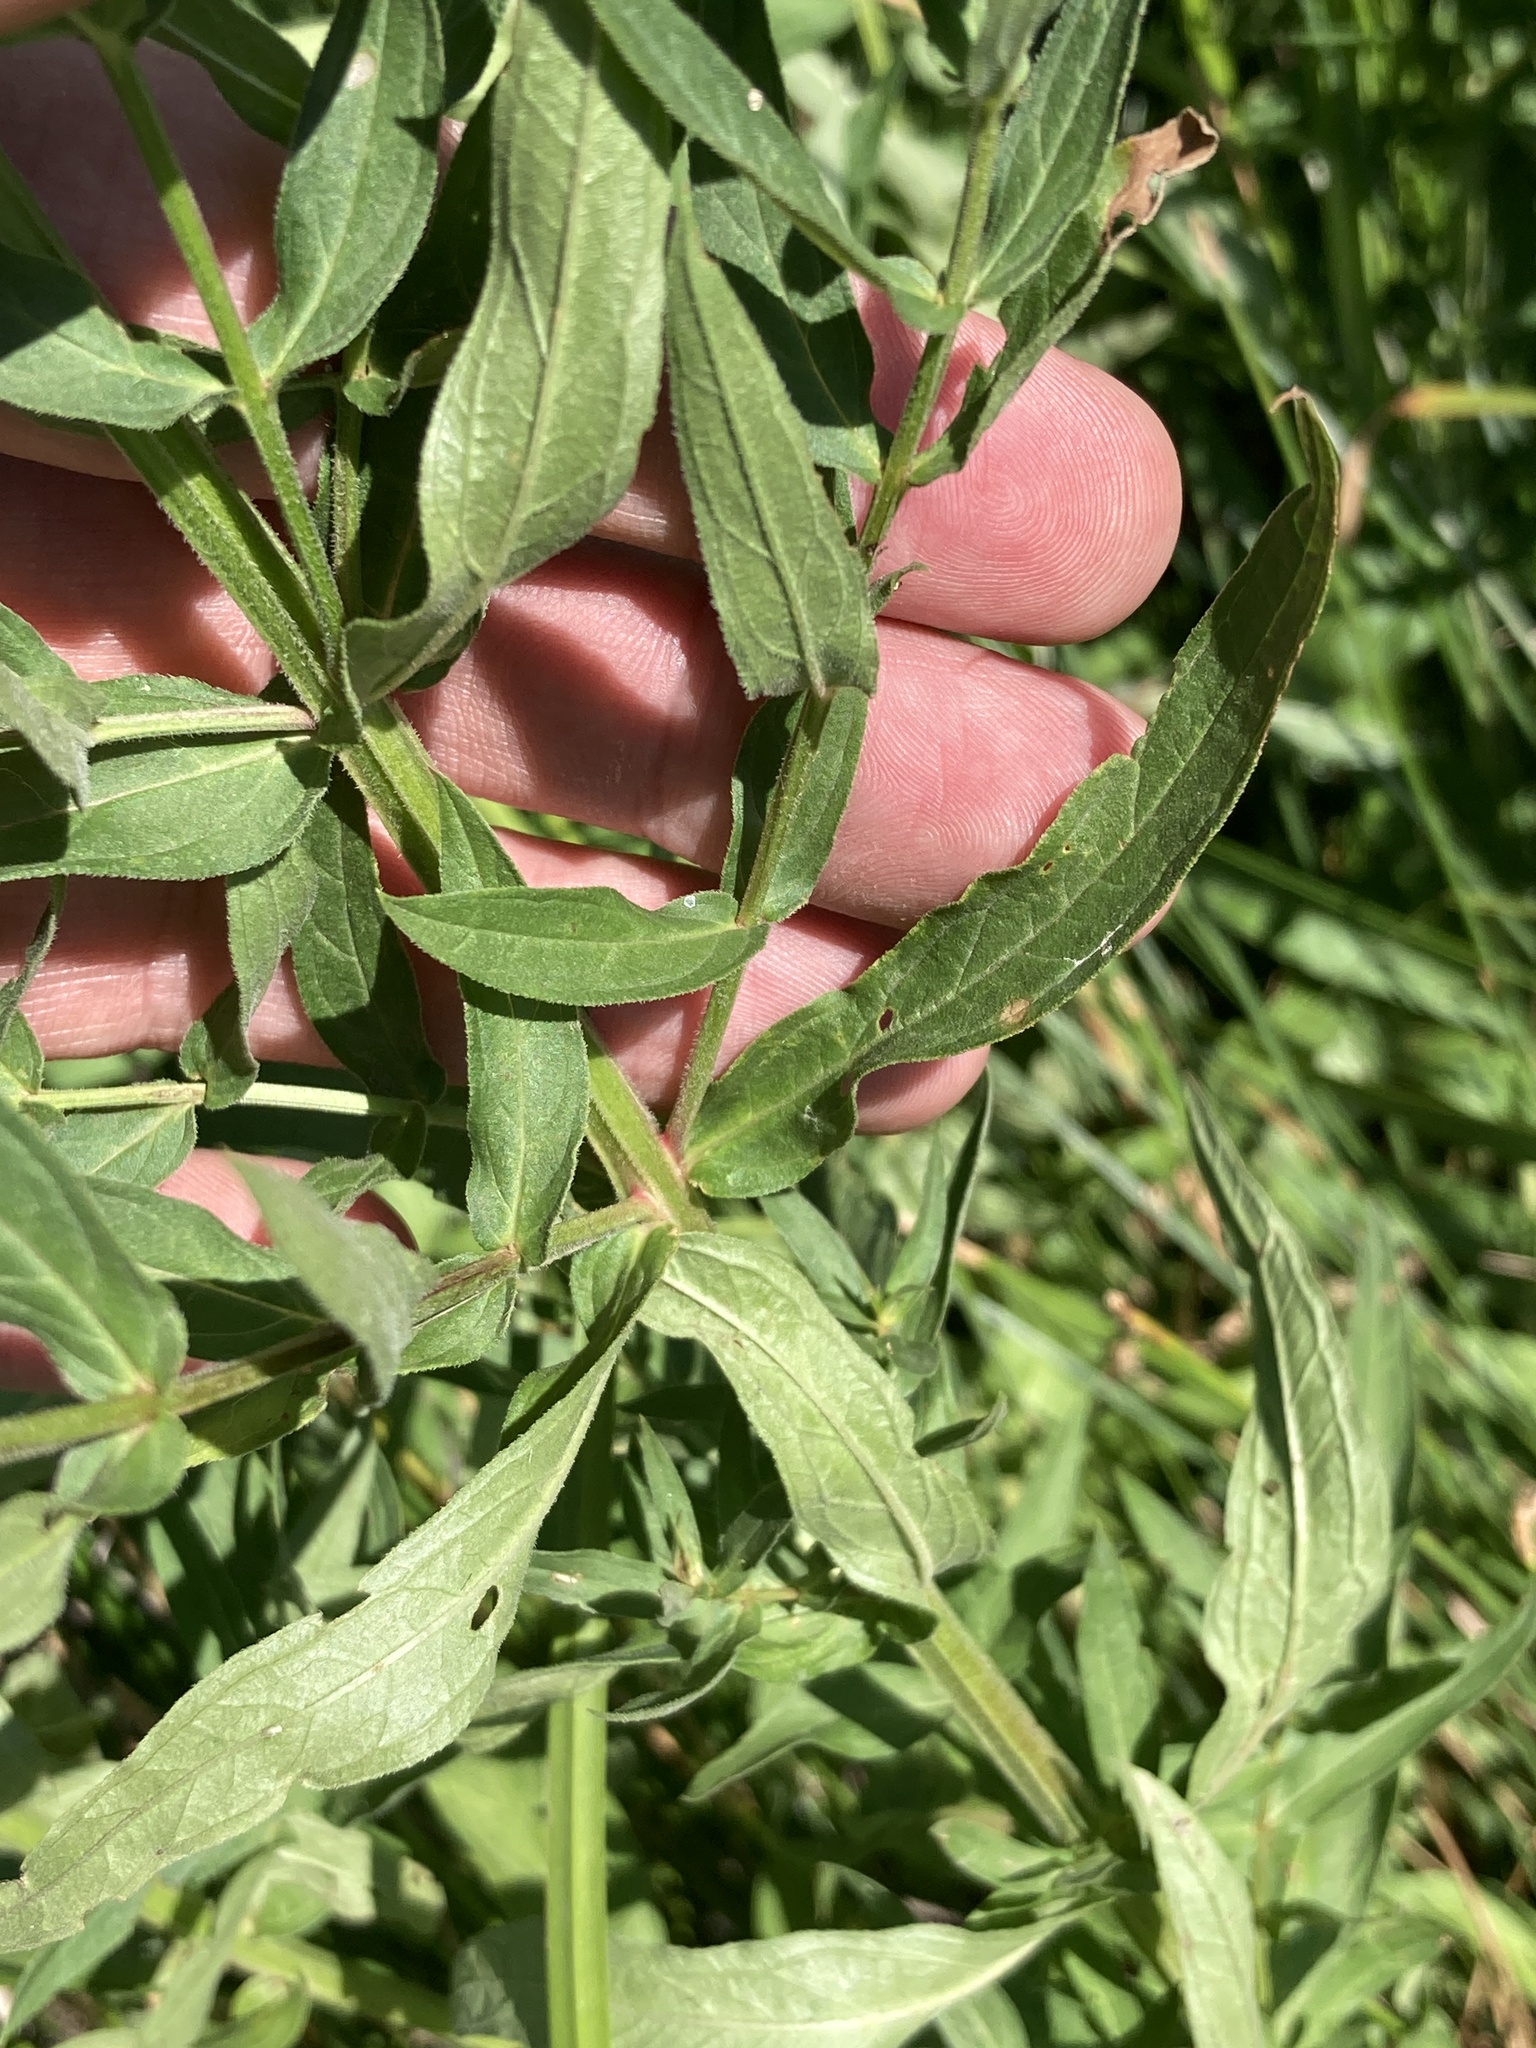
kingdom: Plantae
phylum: Tracheophyta
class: Magnoliopsida
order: Myrtales
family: Lythraceae
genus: Lythrum
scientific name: Lythrum salicaria
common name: Purple loosestrife
